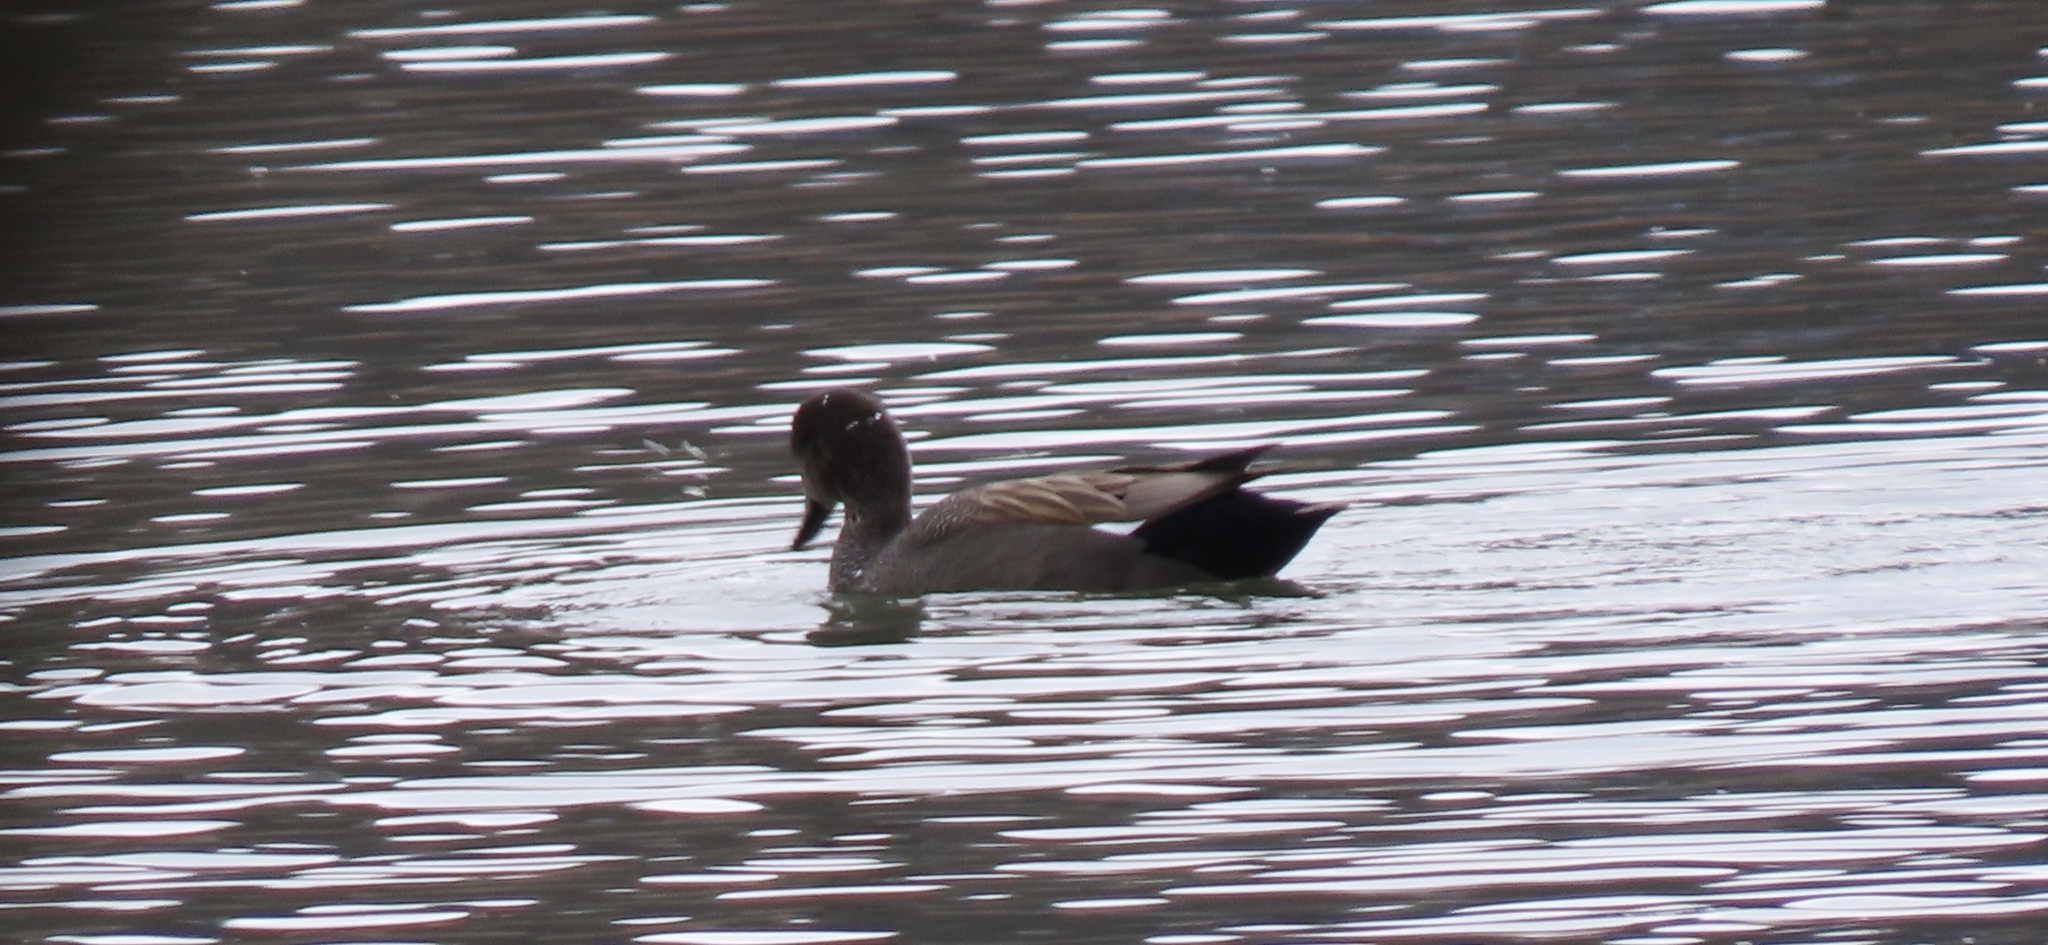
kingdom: Animalia
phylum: Chordata
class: Aves
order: Anseriformes
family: Anatidae
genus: Mareca
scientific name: Mareca strepera
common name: Gadwall
